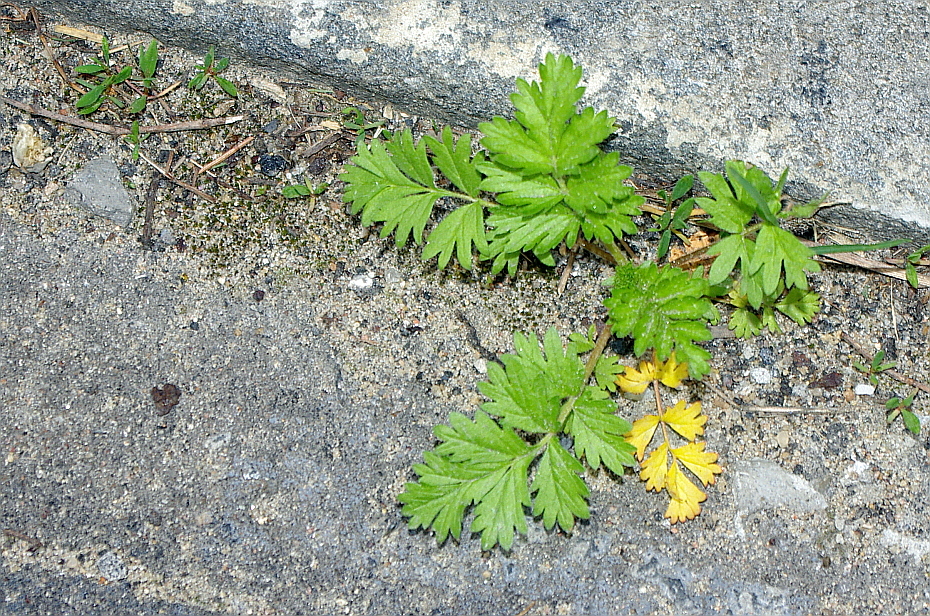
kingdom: Plantae
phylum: Tracheophyta
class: Magnoliopsida
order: Rosales
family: Rosaceae
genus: Potentilla
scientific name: Potentilla supina
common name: Prostrate cinquefoil
